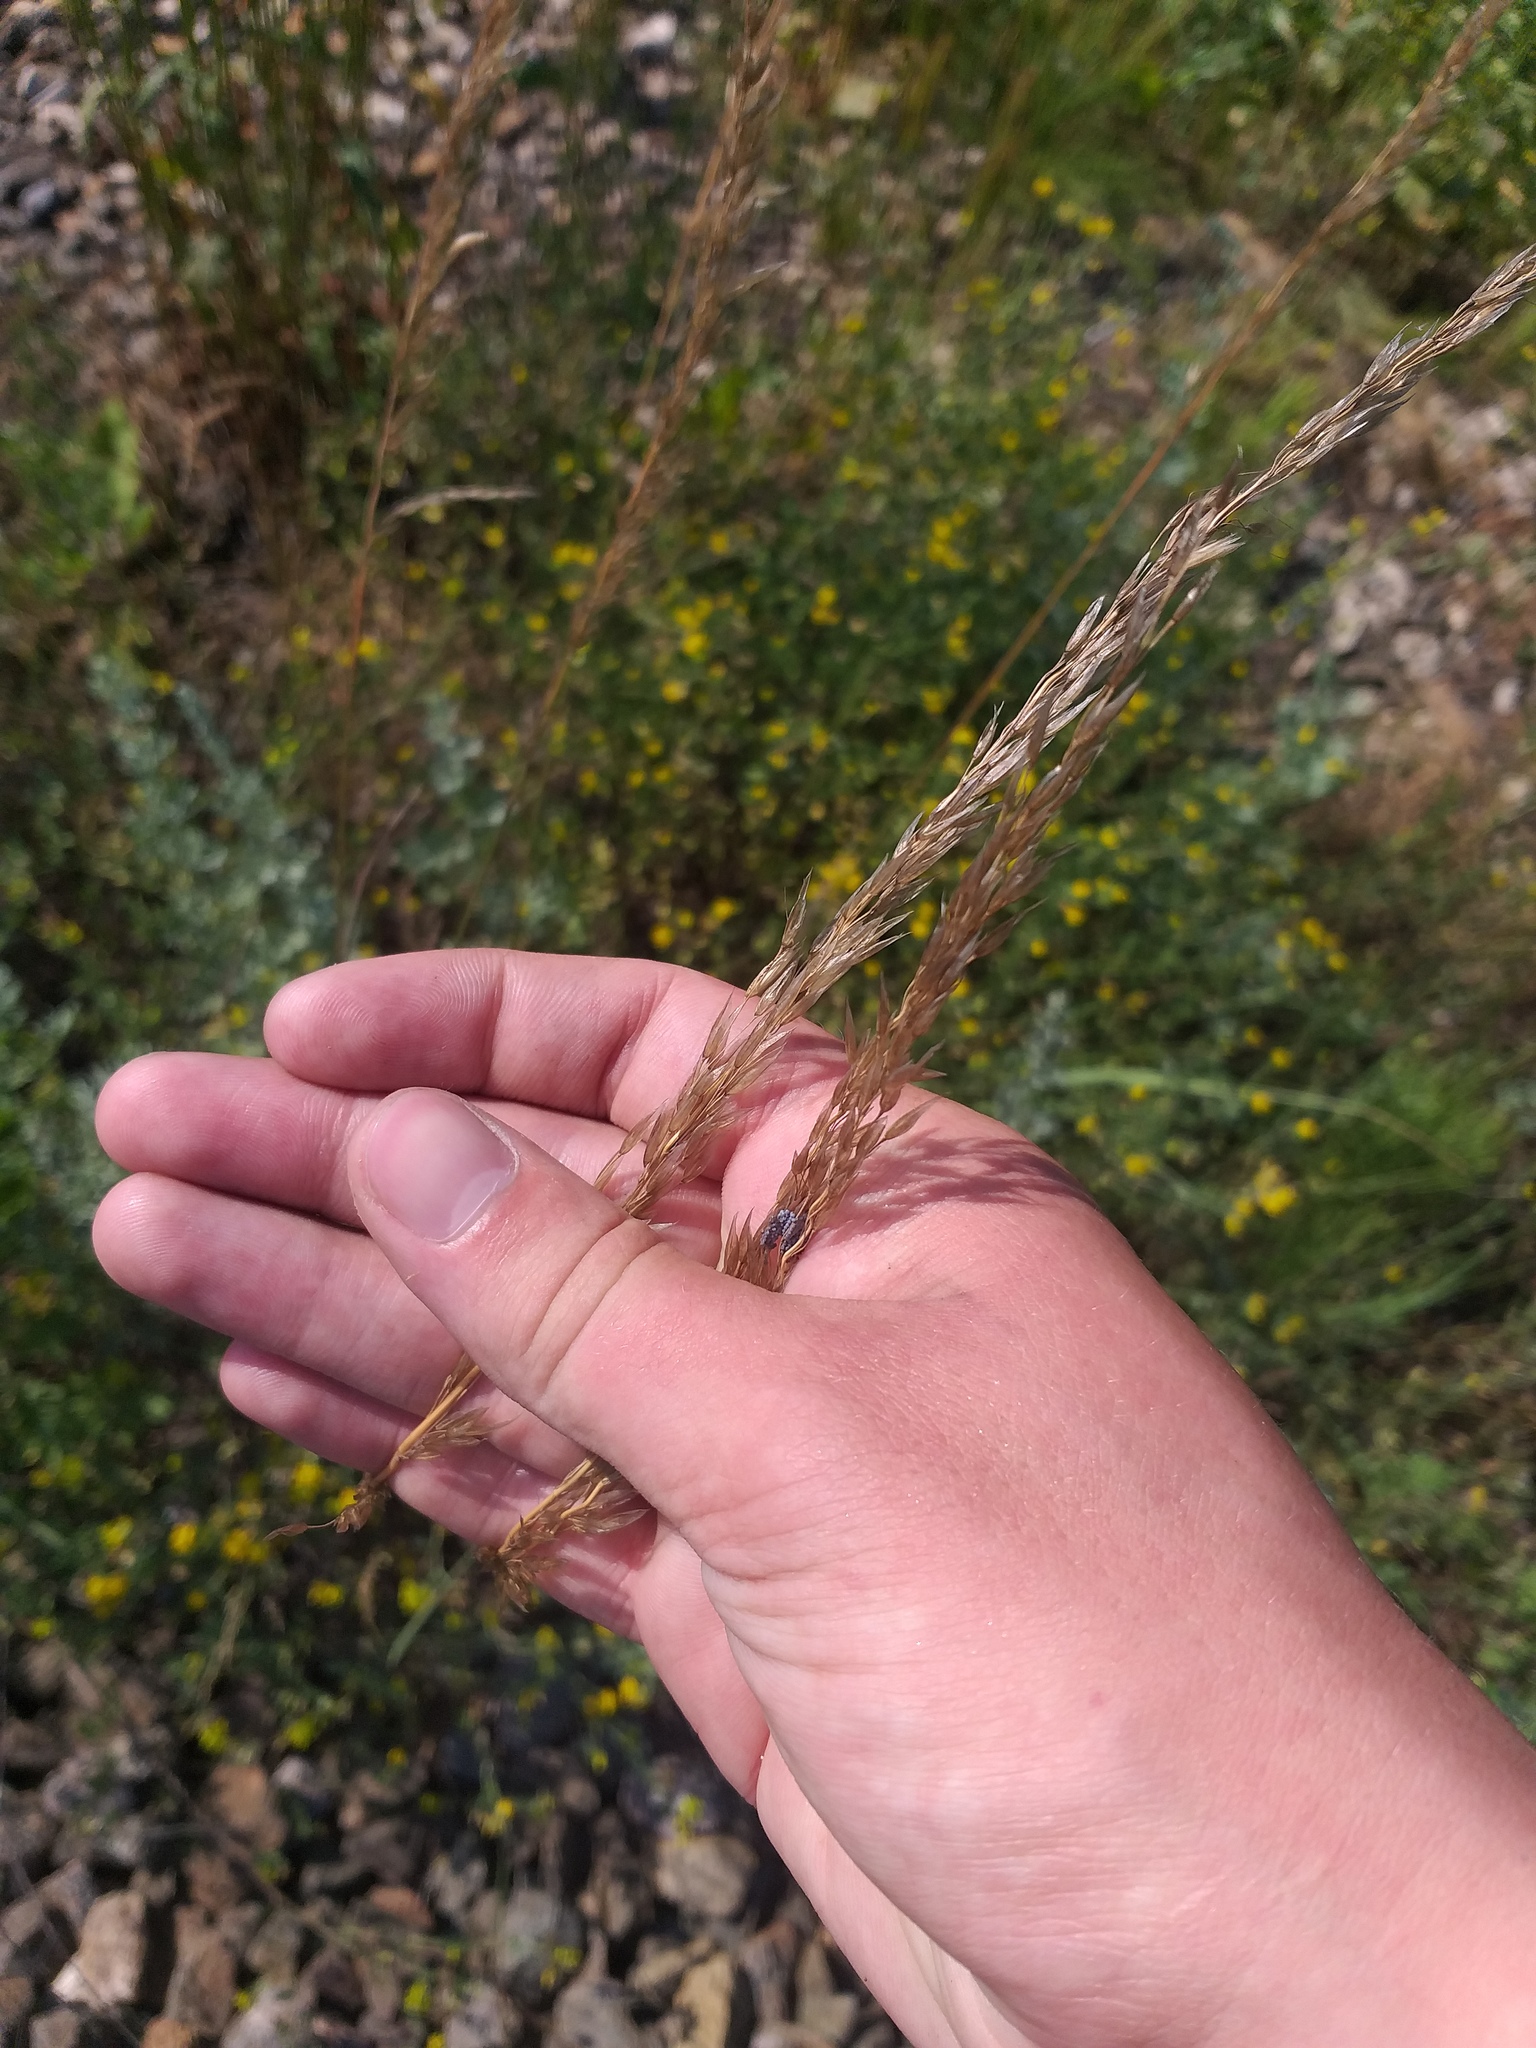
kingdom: Plantae
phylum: Tracheophyta
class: Liliopsida
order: Poales
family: Poaceae
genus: Arrhenatherum
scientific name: Arrhenatherum elatius
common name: Tall oatgrass
